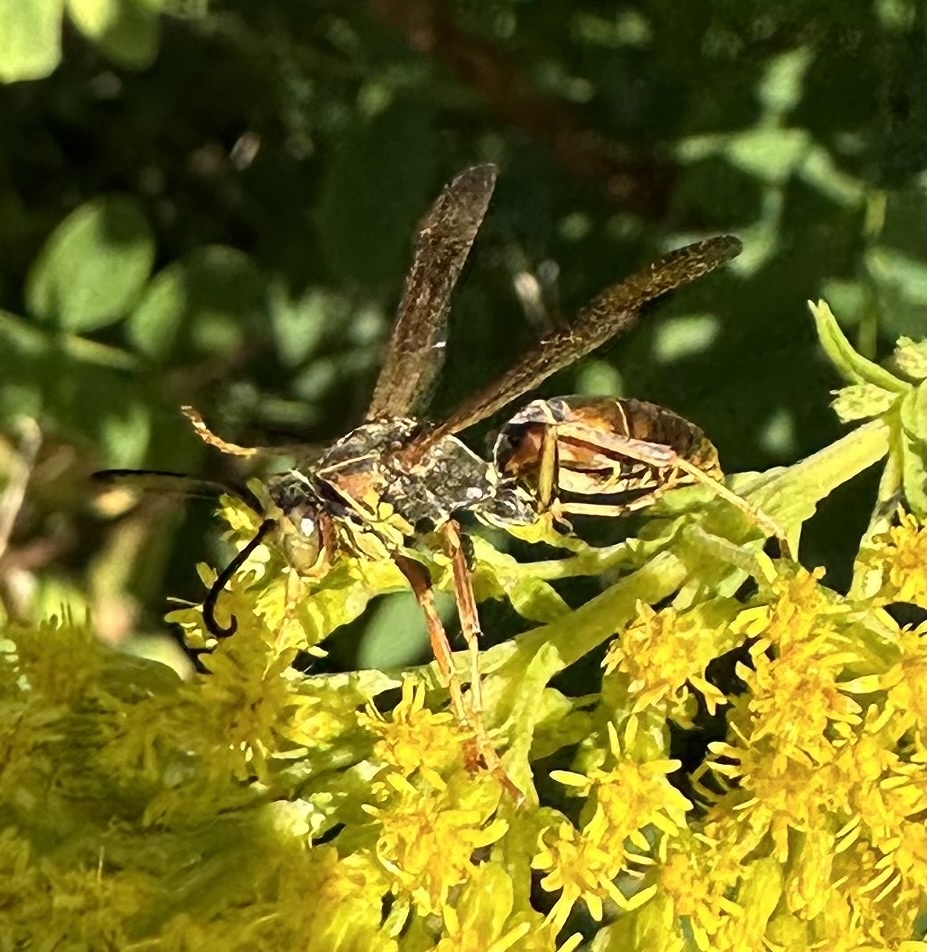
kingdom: Animalia
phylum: Arthropoda
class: Insecta
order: Hymenoptera
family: Eumenidae
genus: Polistes
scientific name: Polistes fuscatus
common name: Dark paper wasp
